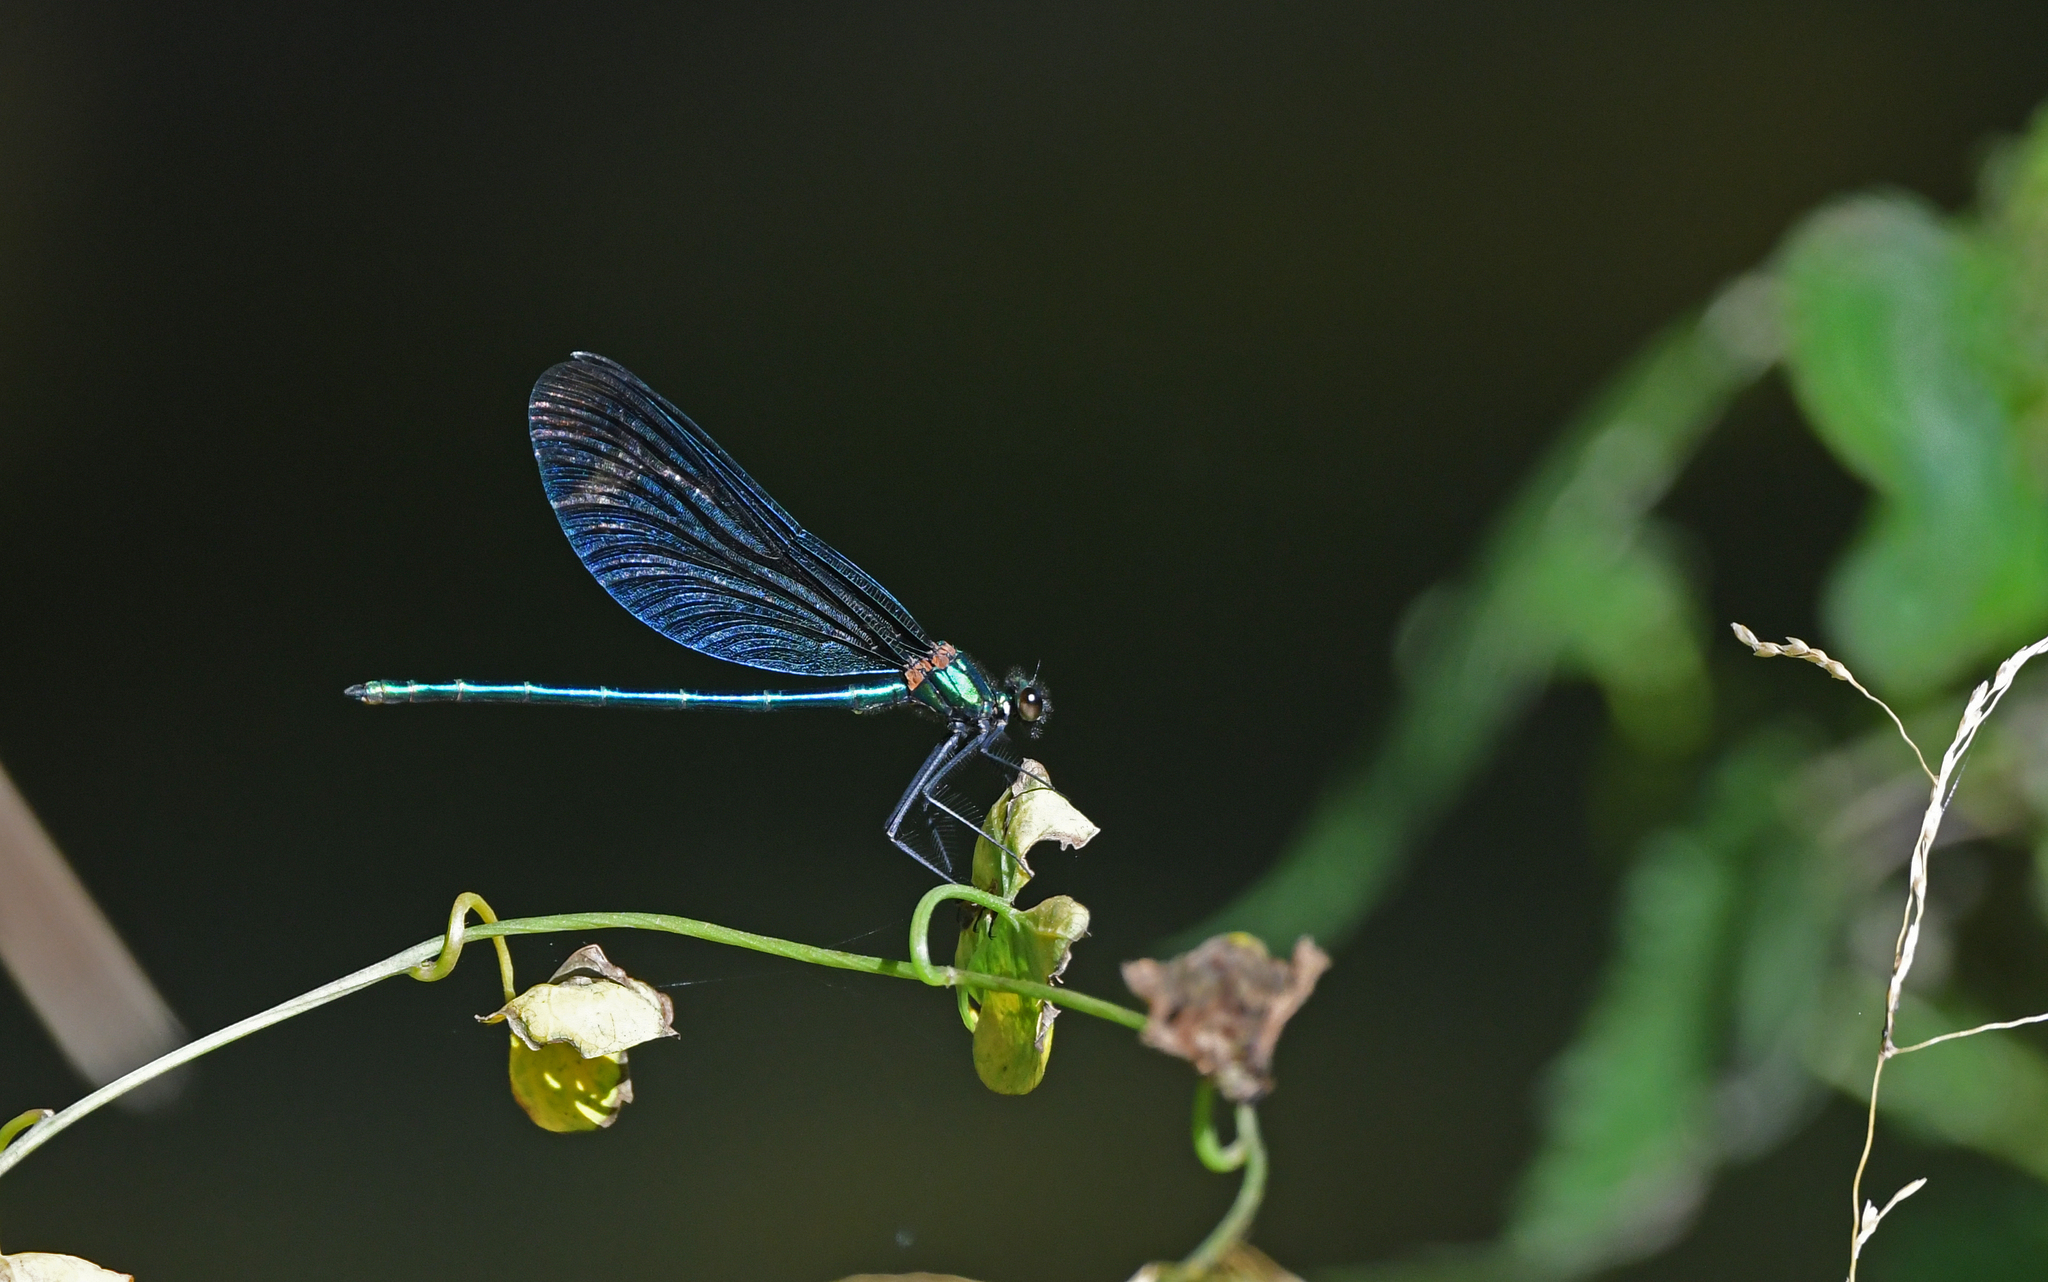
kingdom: Animalia
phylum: Arthropoda
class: Insecta
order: Odonata
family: Calopterygidae
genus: Calopteryx
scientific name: Calopteryx virgo
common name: Beautiful demoiselle
